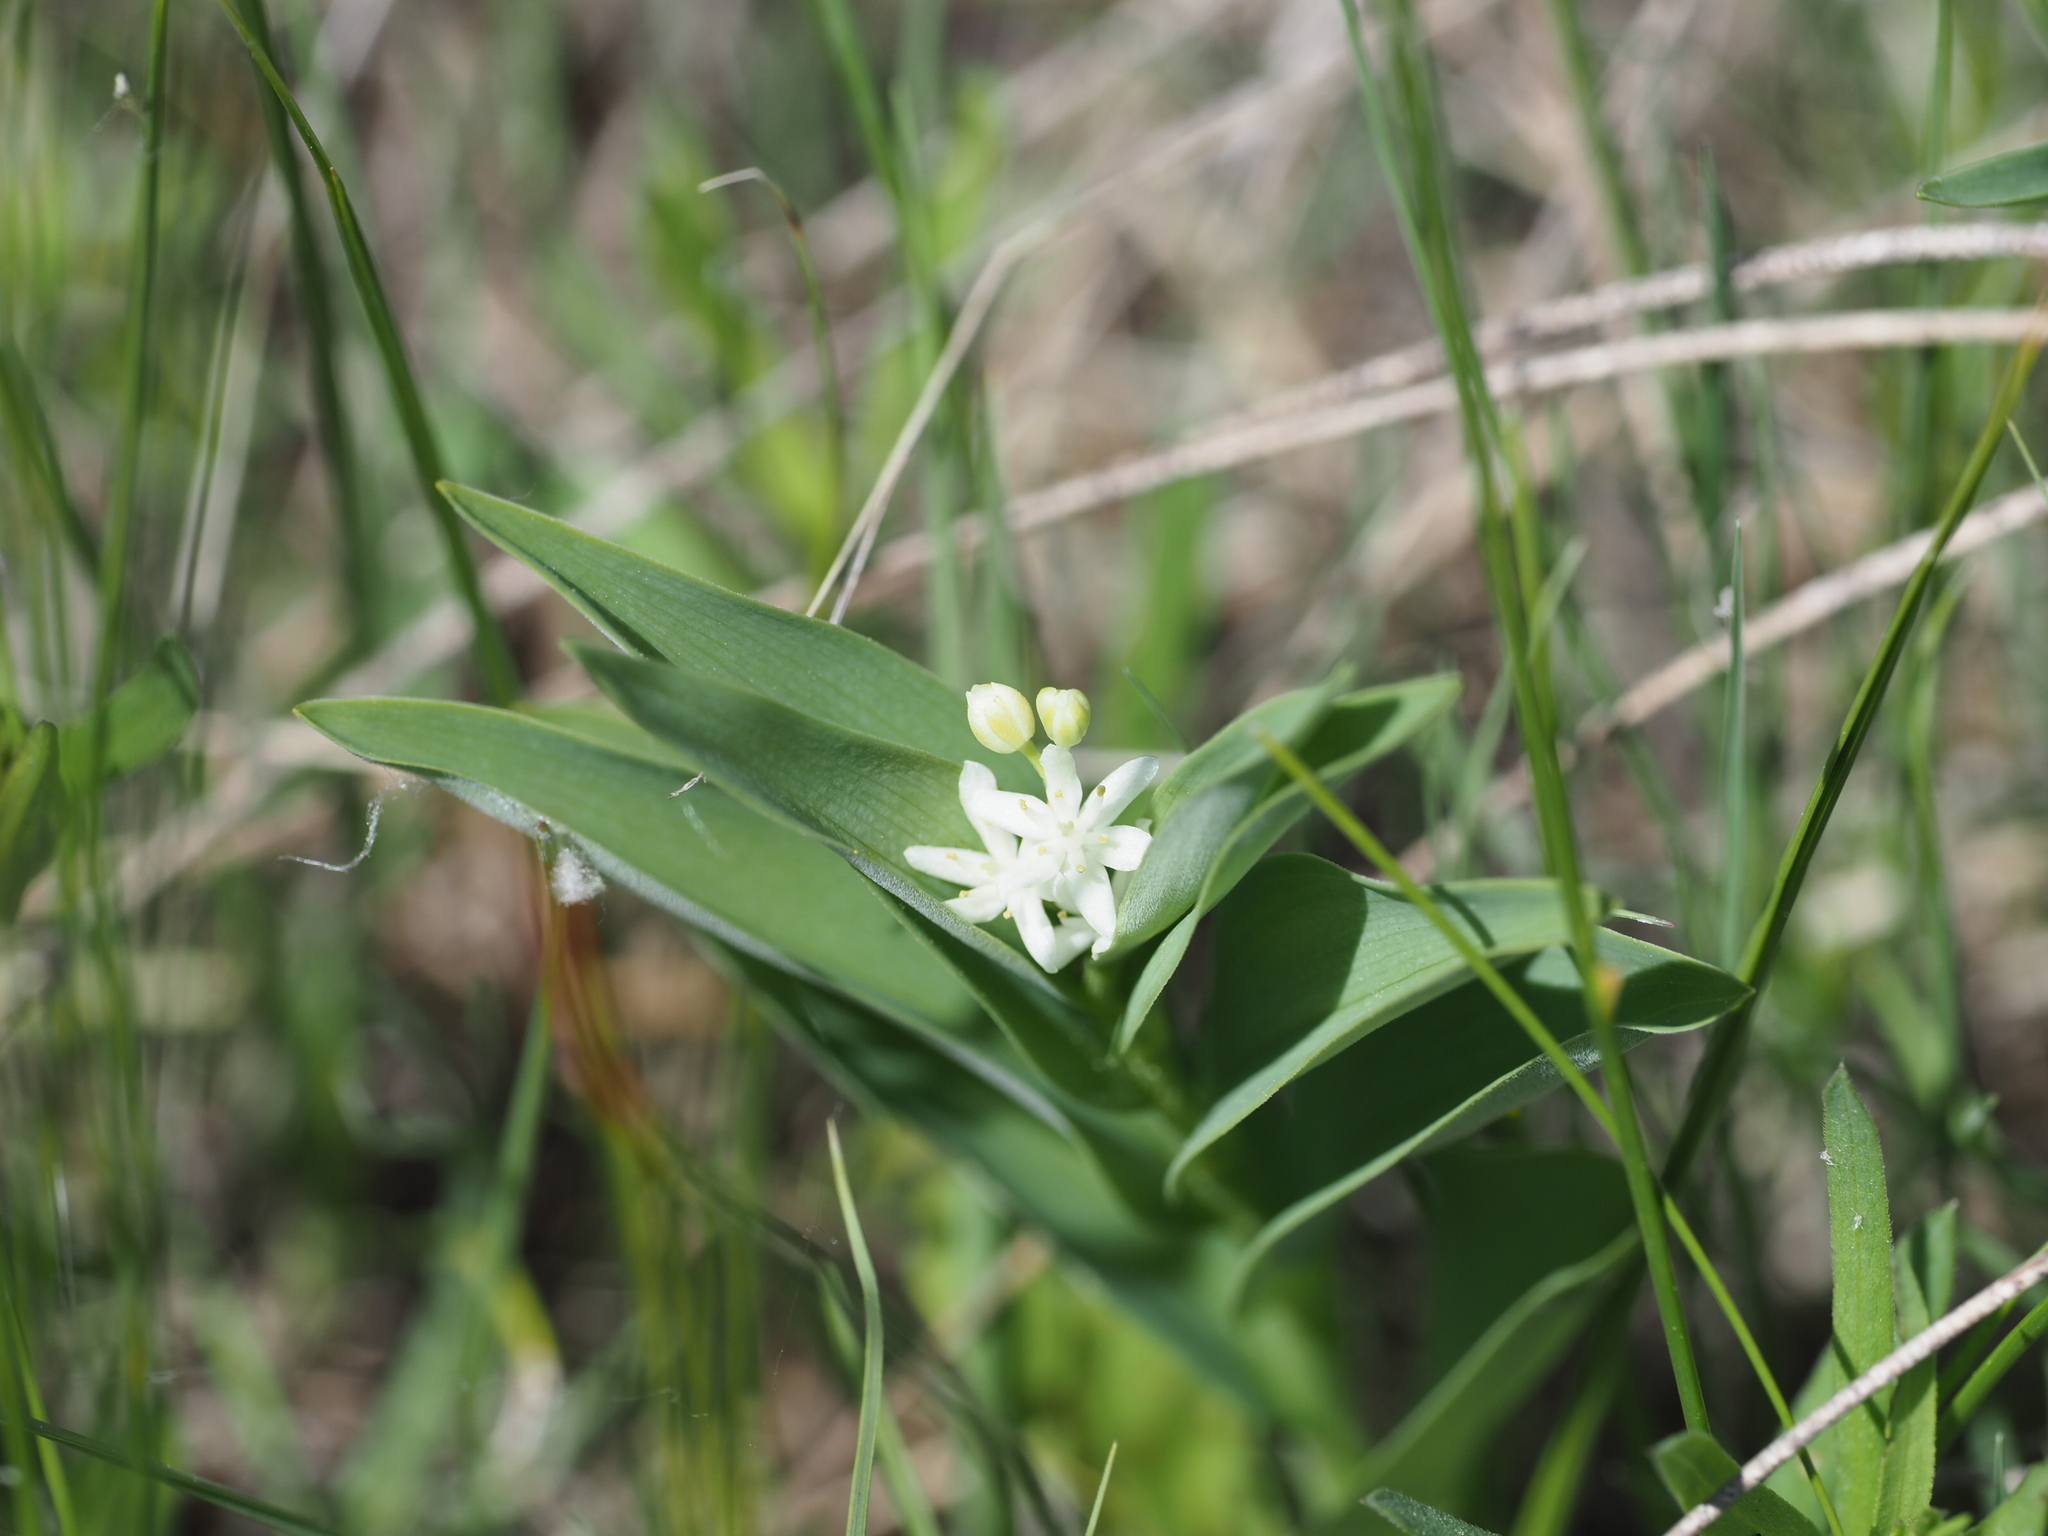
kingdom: Plantae
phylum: Tracheophyta
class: Liliopsida
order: Asparagales
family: Asparagaceae
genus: Maianthemum
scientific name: Maianthemum stellatum
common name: Little false solomon's seal
